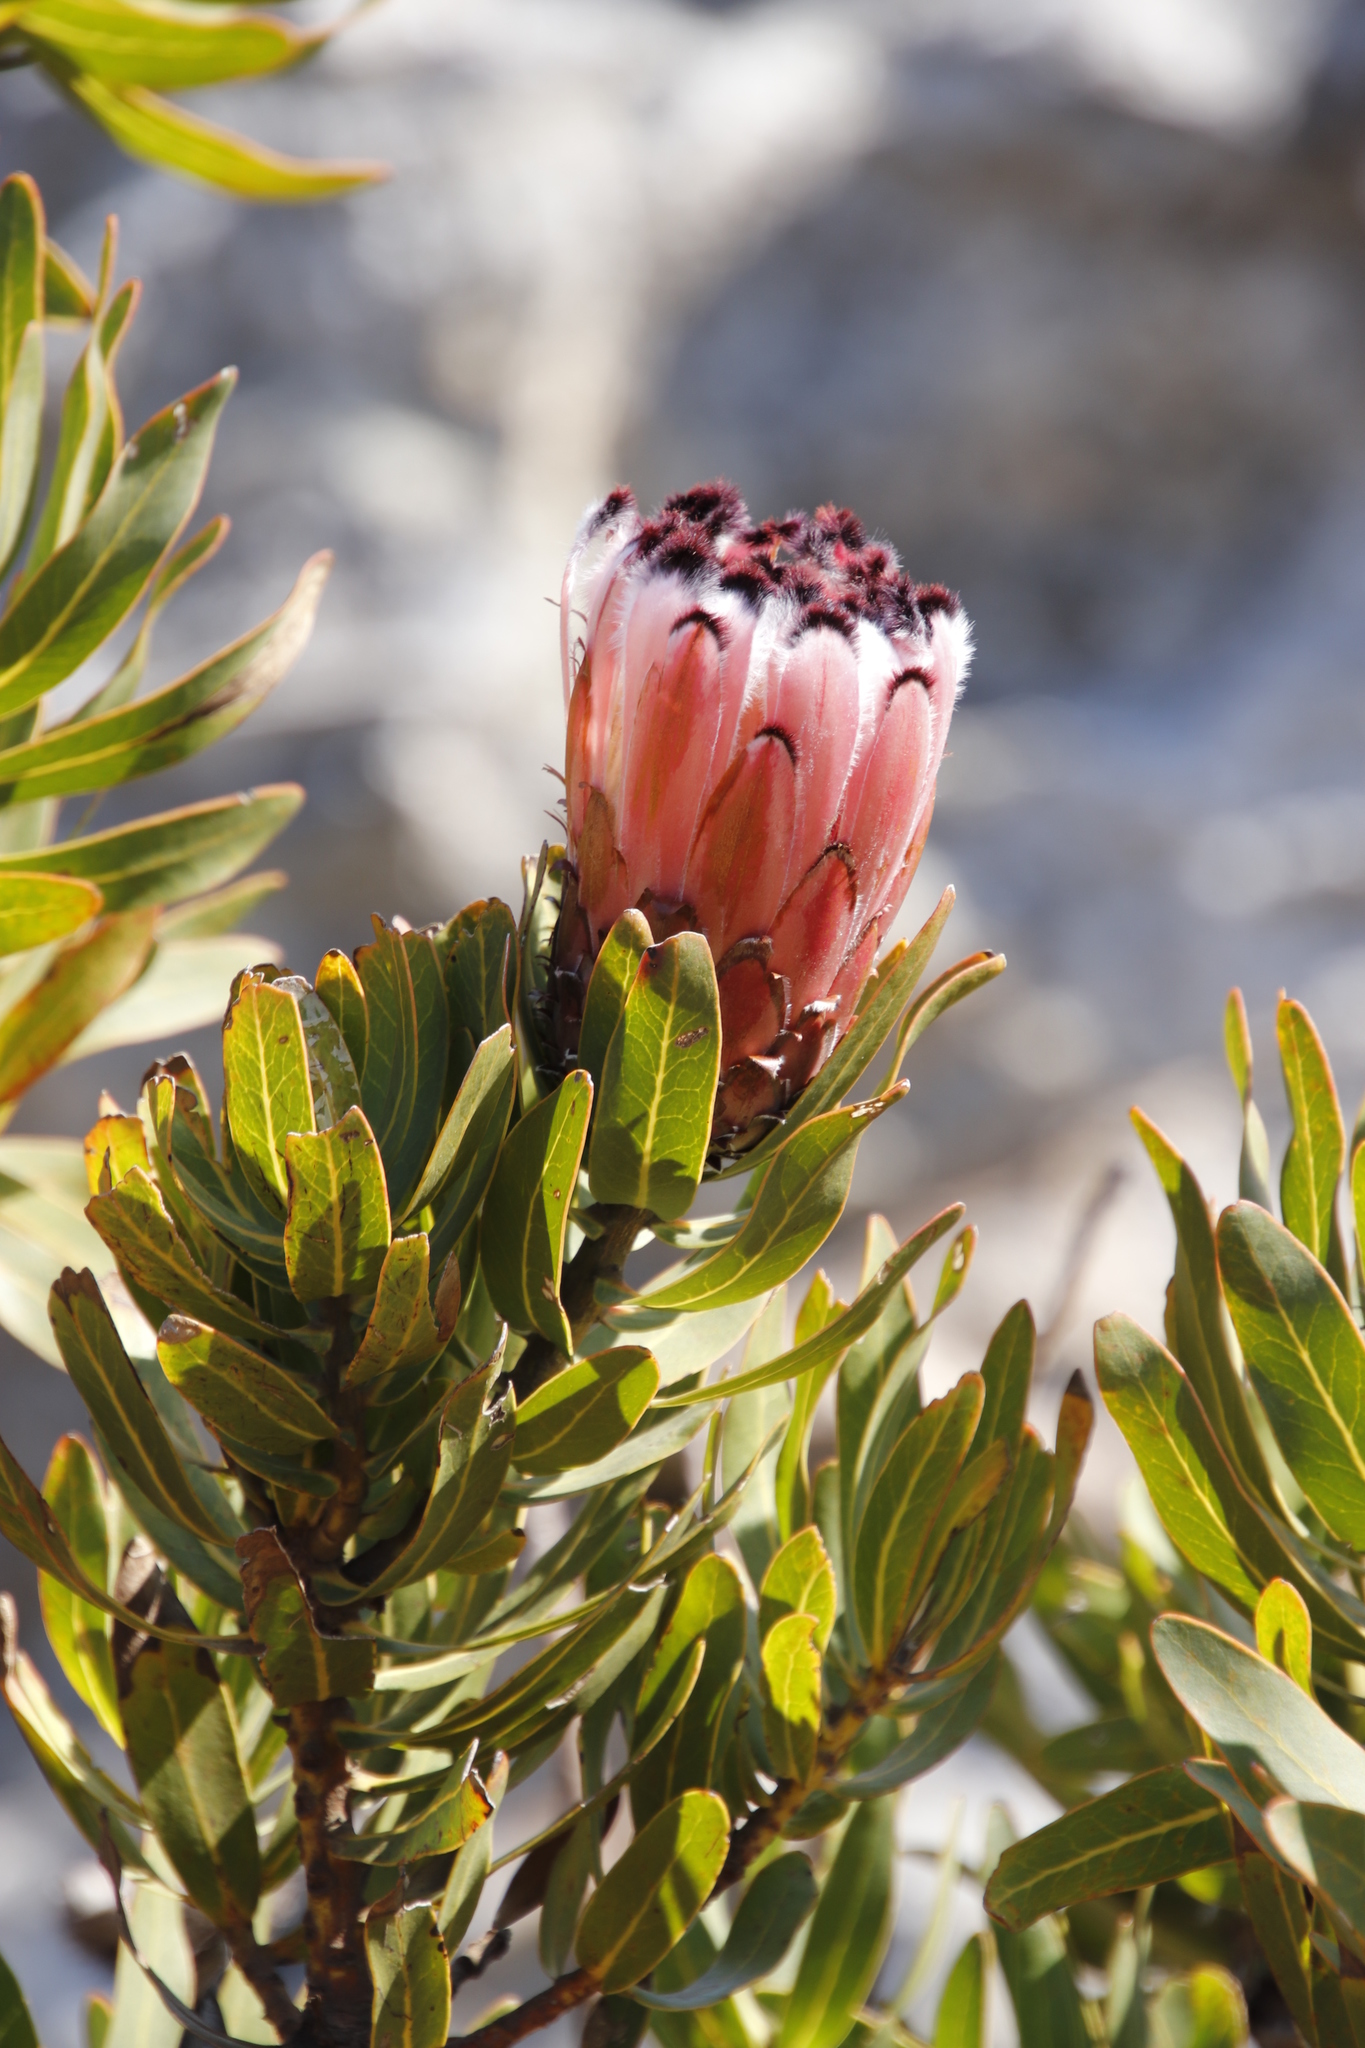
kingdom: Plantae
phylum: Tracheophyta
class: Magnoliopsida
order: Proteales
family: Proteaceae
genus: Protea
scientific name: Protea neriifolia
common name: Blue sugarbush
